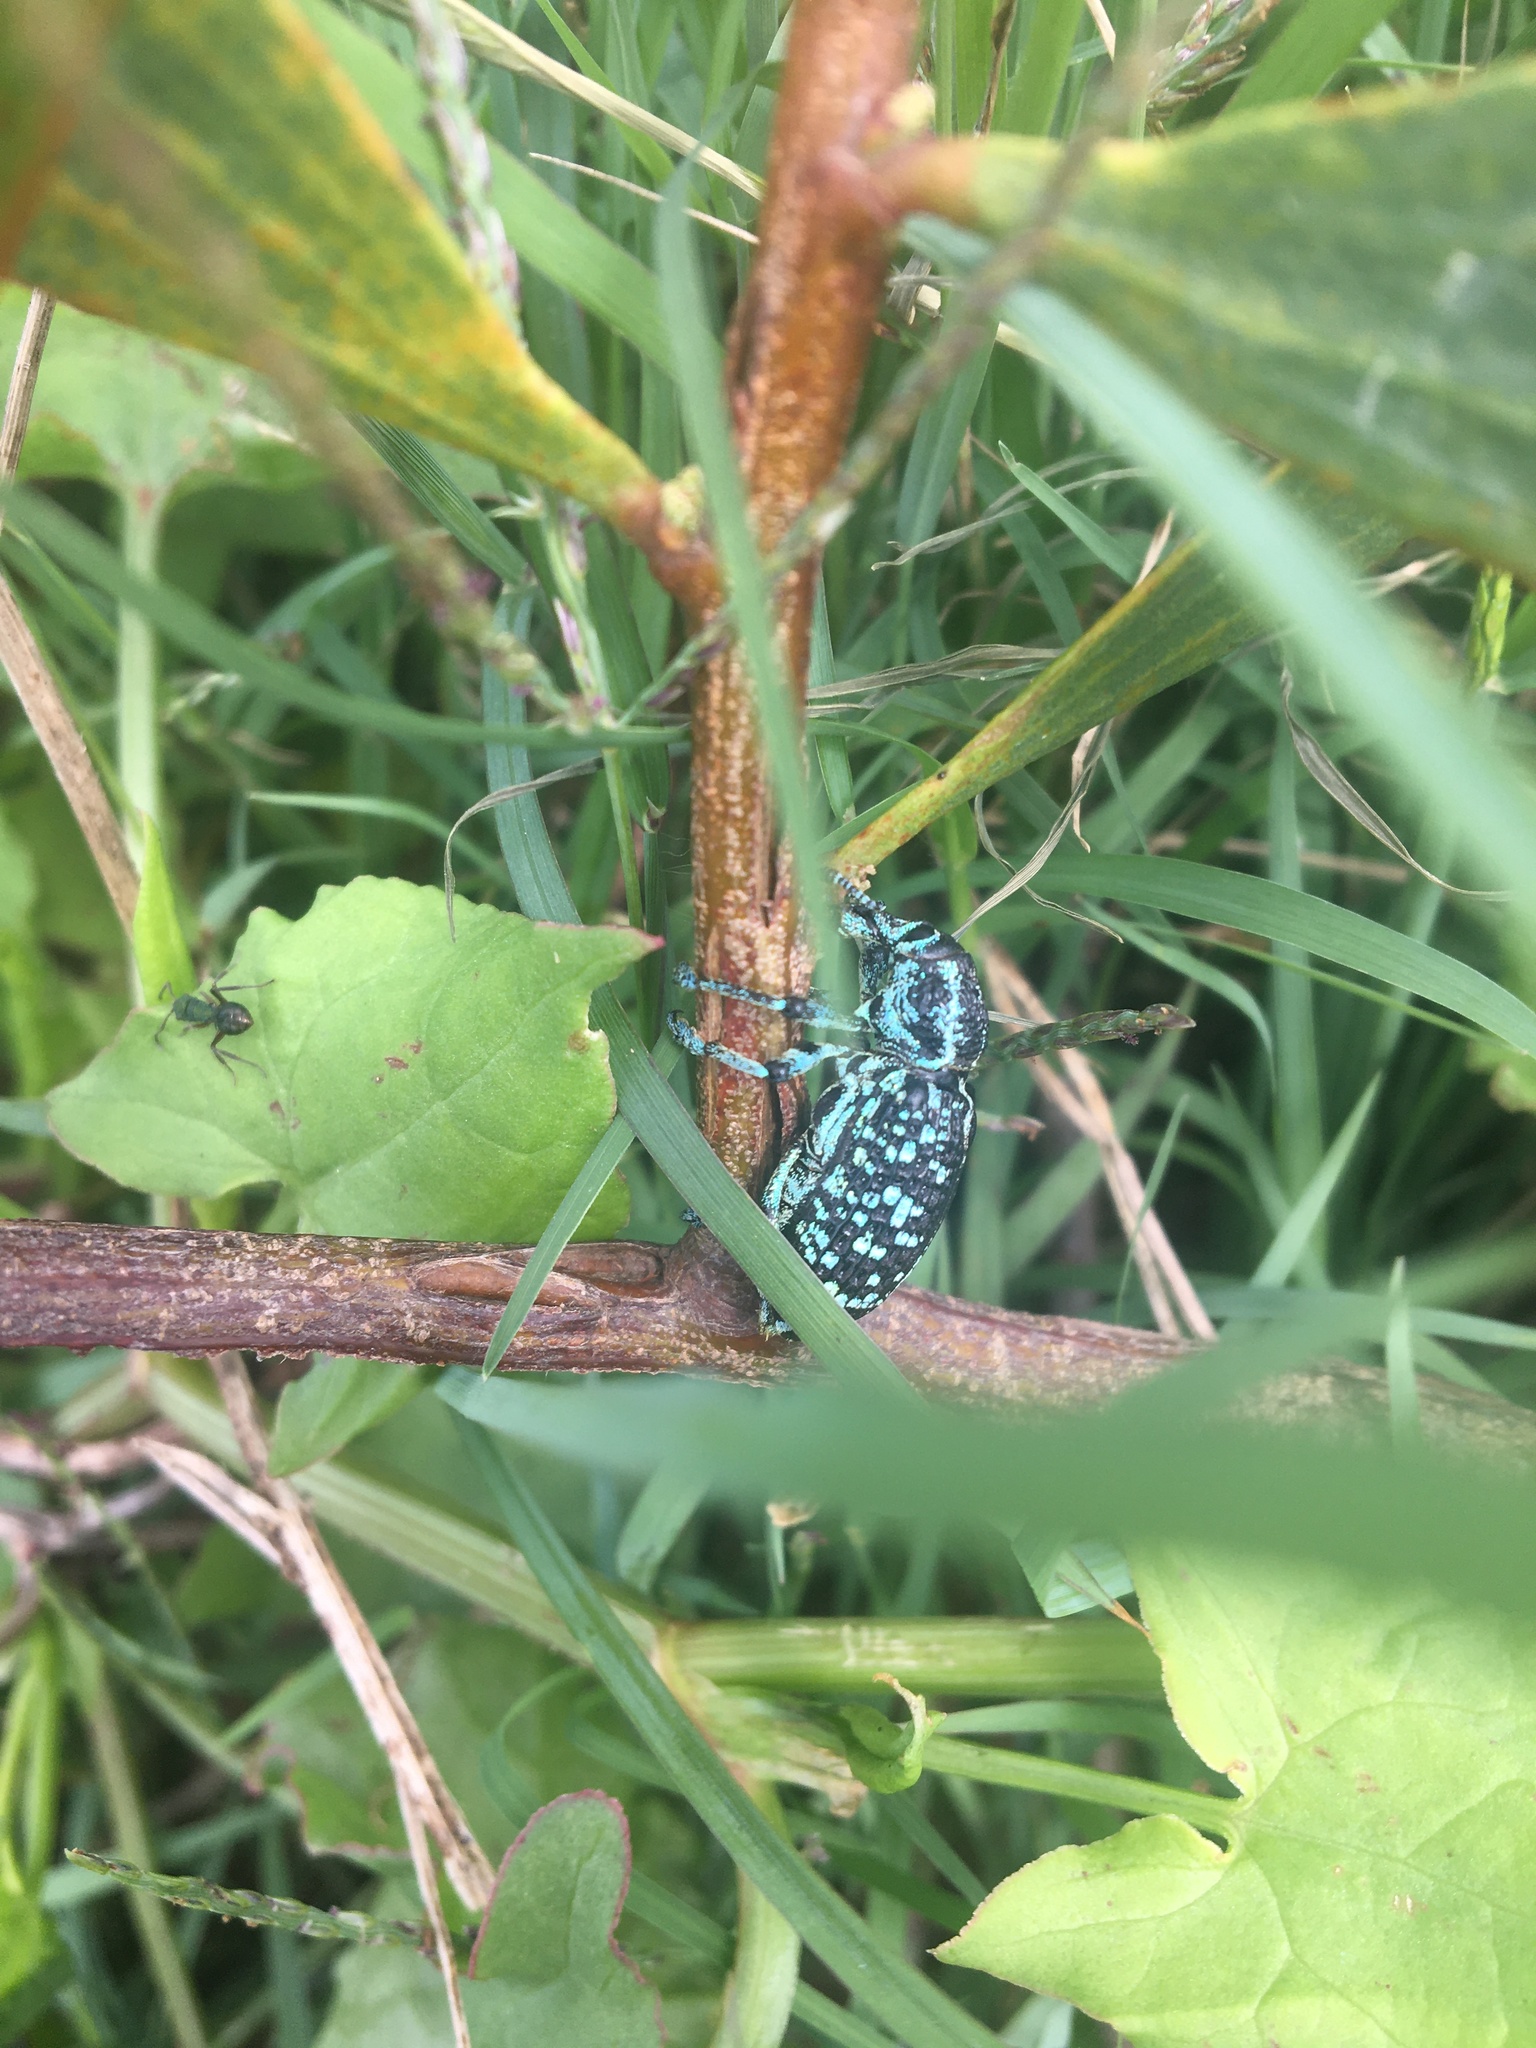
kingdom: Animalia
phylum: Arthropoda
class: Insecta
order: Coleoptera
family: Curculionidae
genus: Chrysolopus
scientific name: Chrysolopus spectabilis
